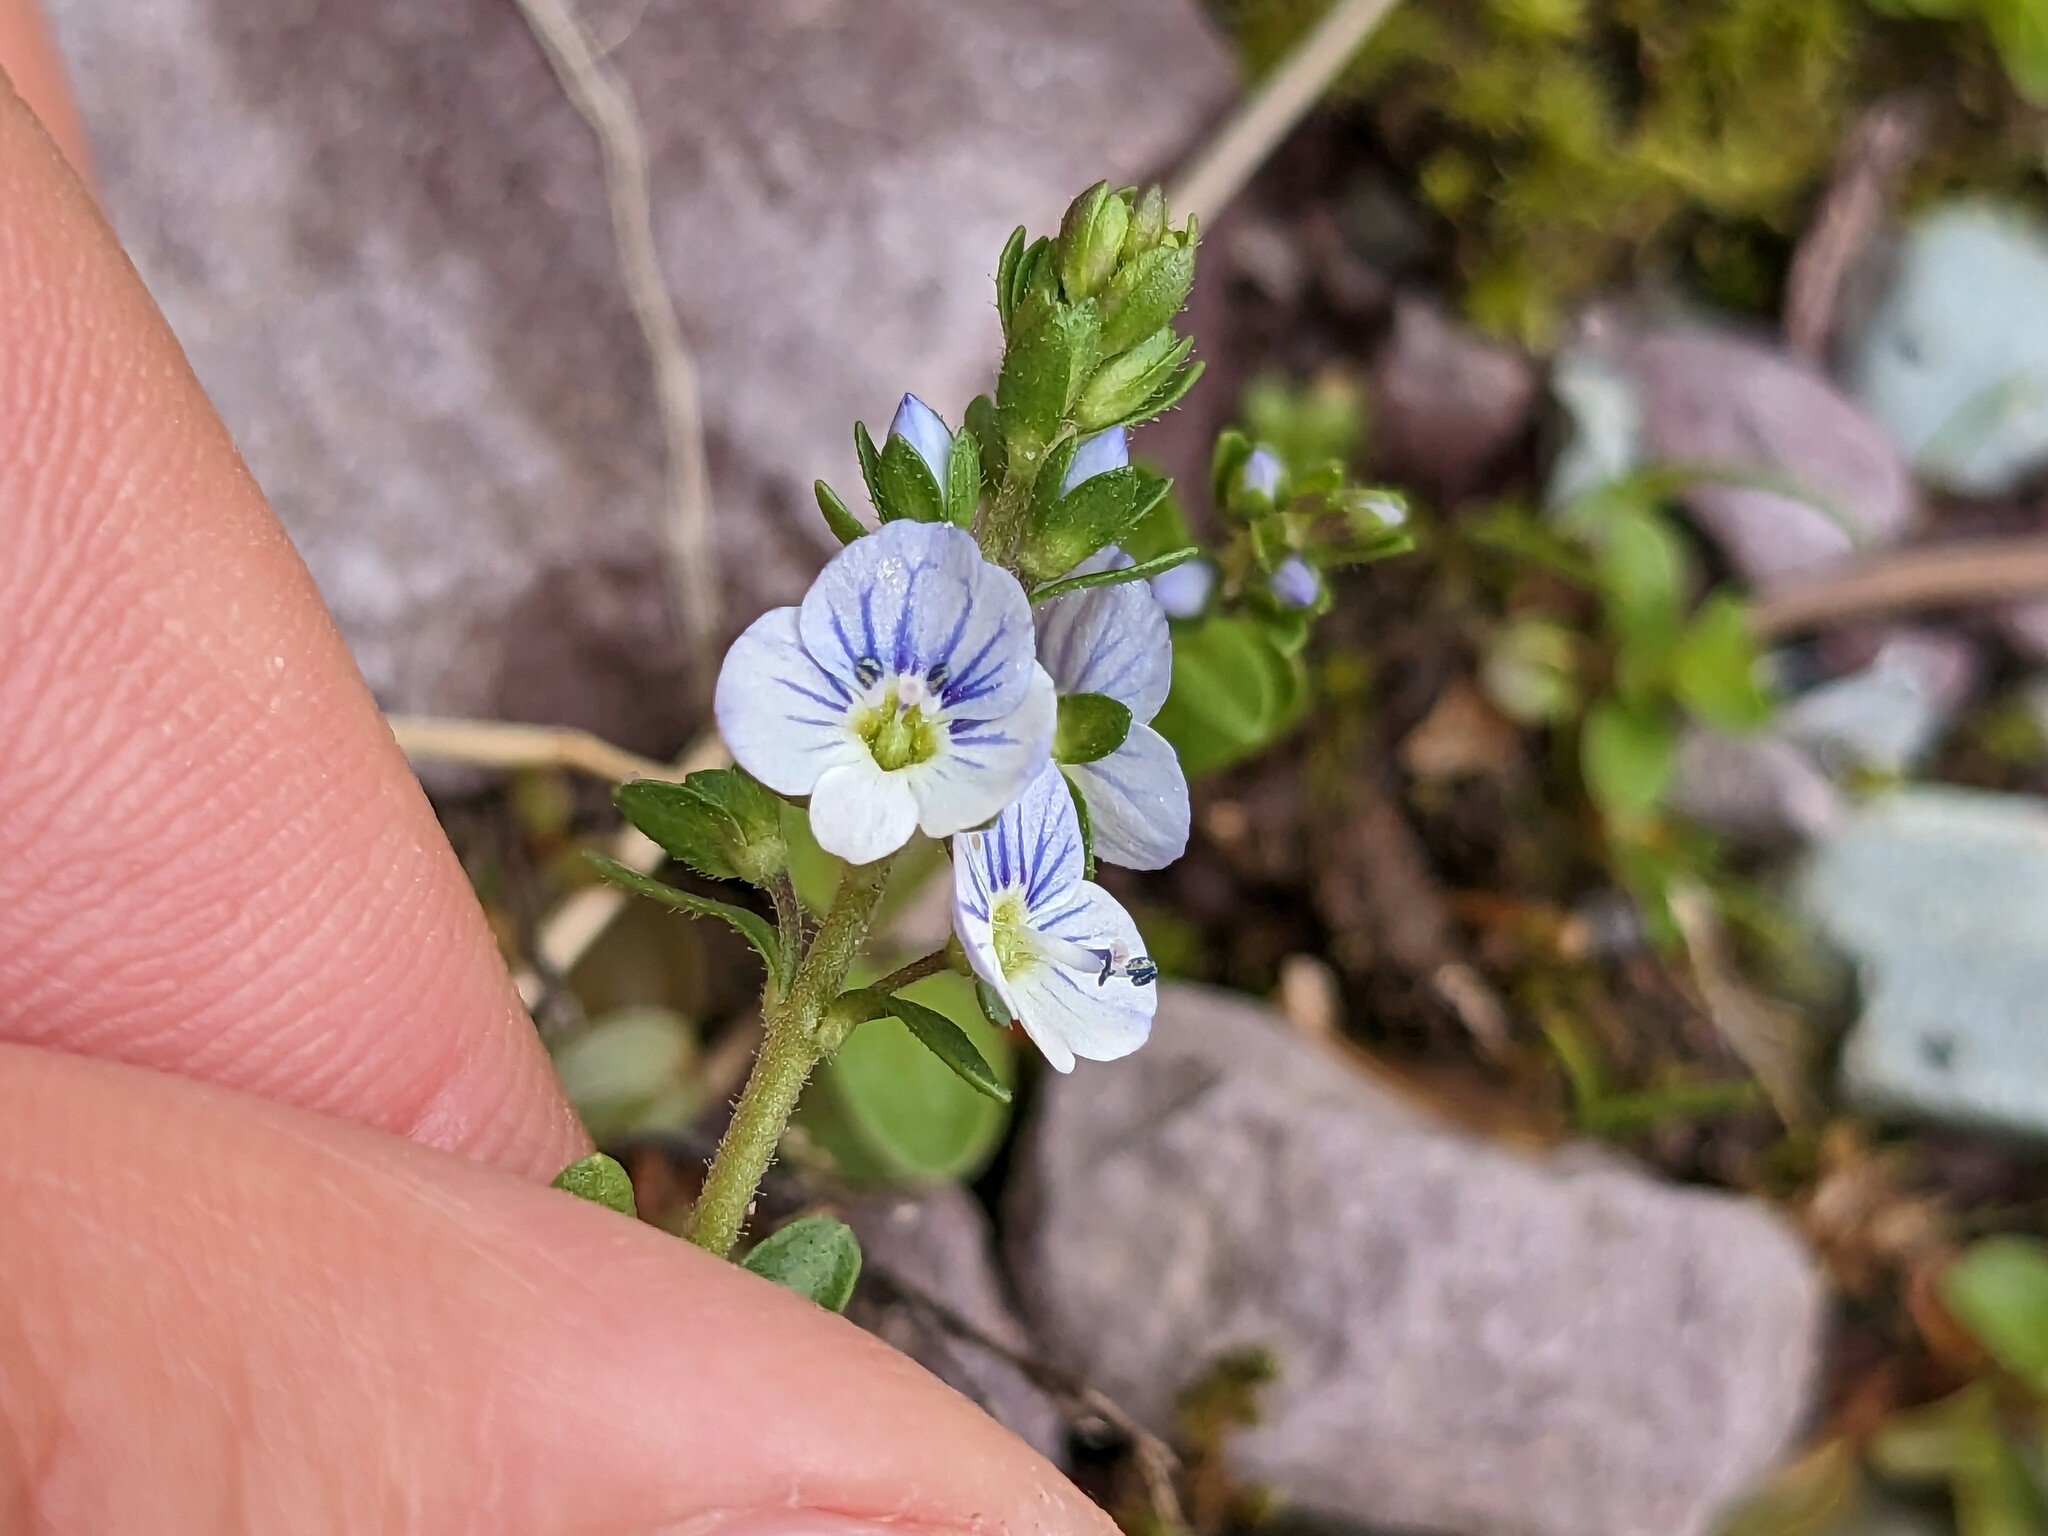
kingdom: Plantae
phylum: Tracheophyta
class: Magnoliopsida
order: Lamiales
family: Plantaginaceae
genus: Veronica
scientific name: Veronica serpyllifolia
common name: Thyme-leaved speedwell
